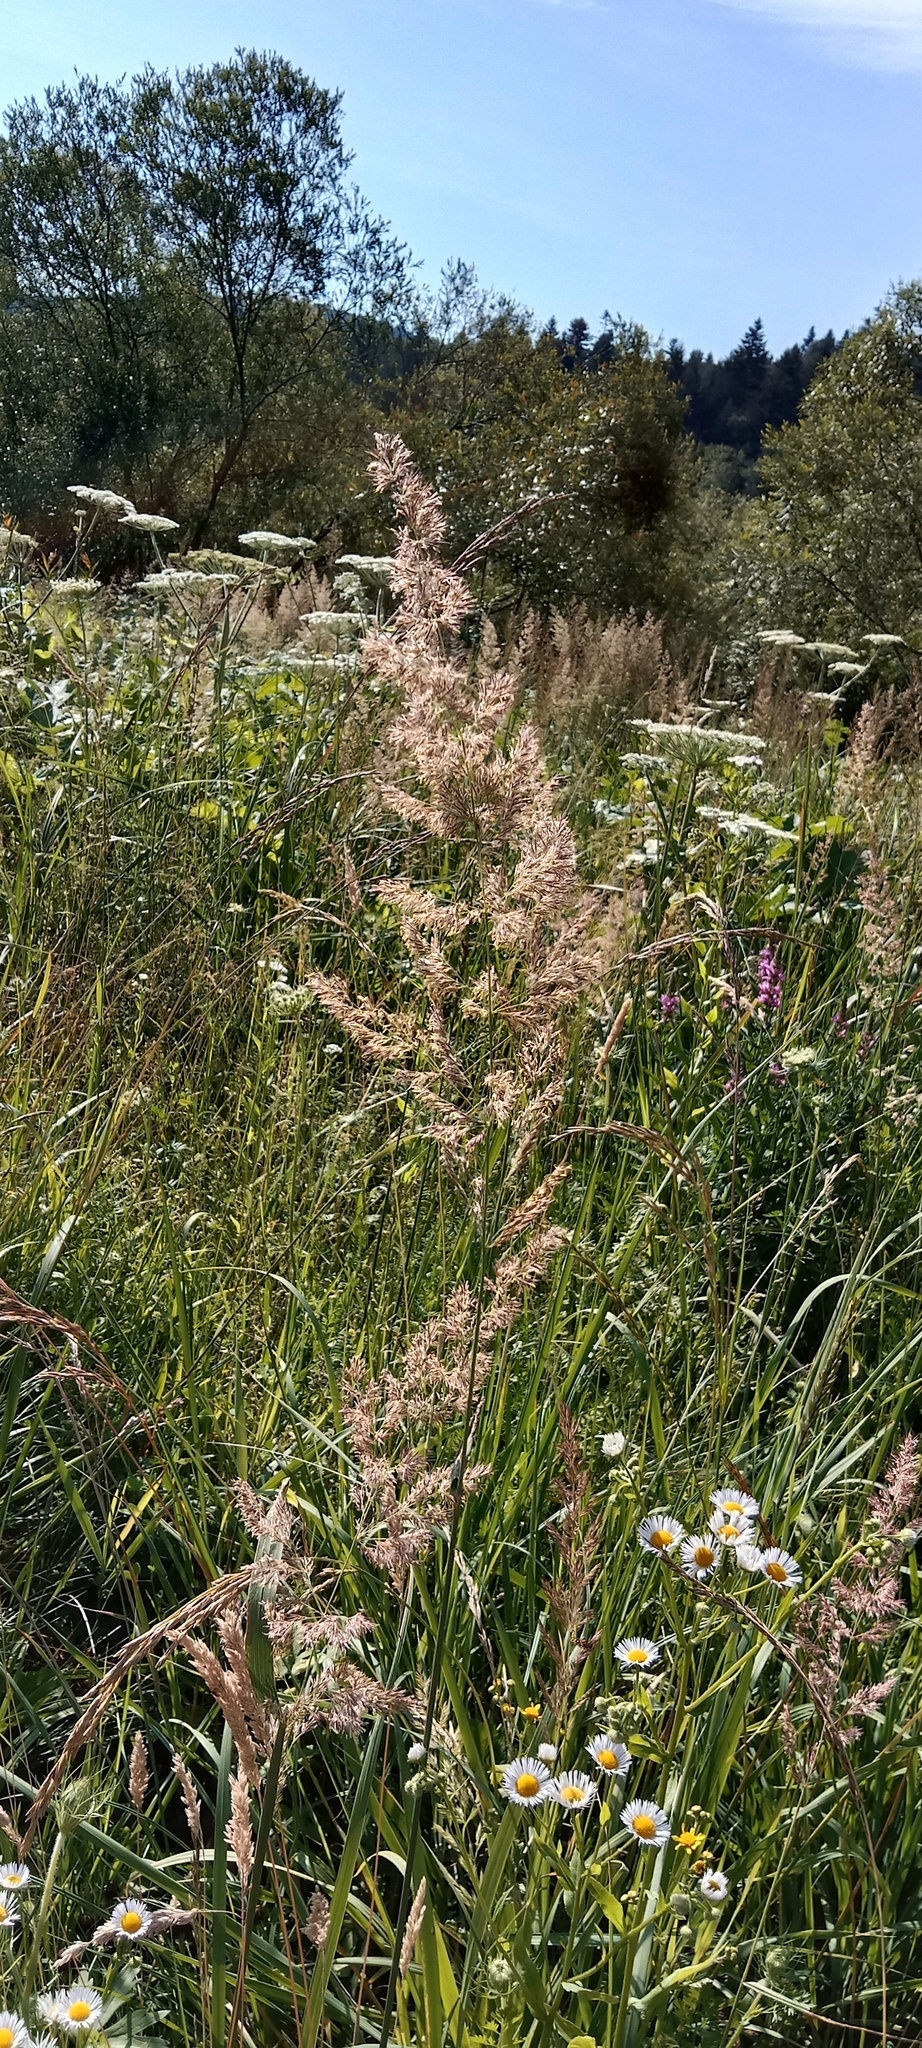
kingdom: Plantae
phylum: Tracheophyta
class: Liliopsida
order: Poales
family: Poaceae
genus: Calamagrostis
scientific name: Calamagrostis epigejos
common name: Wood small-reed
